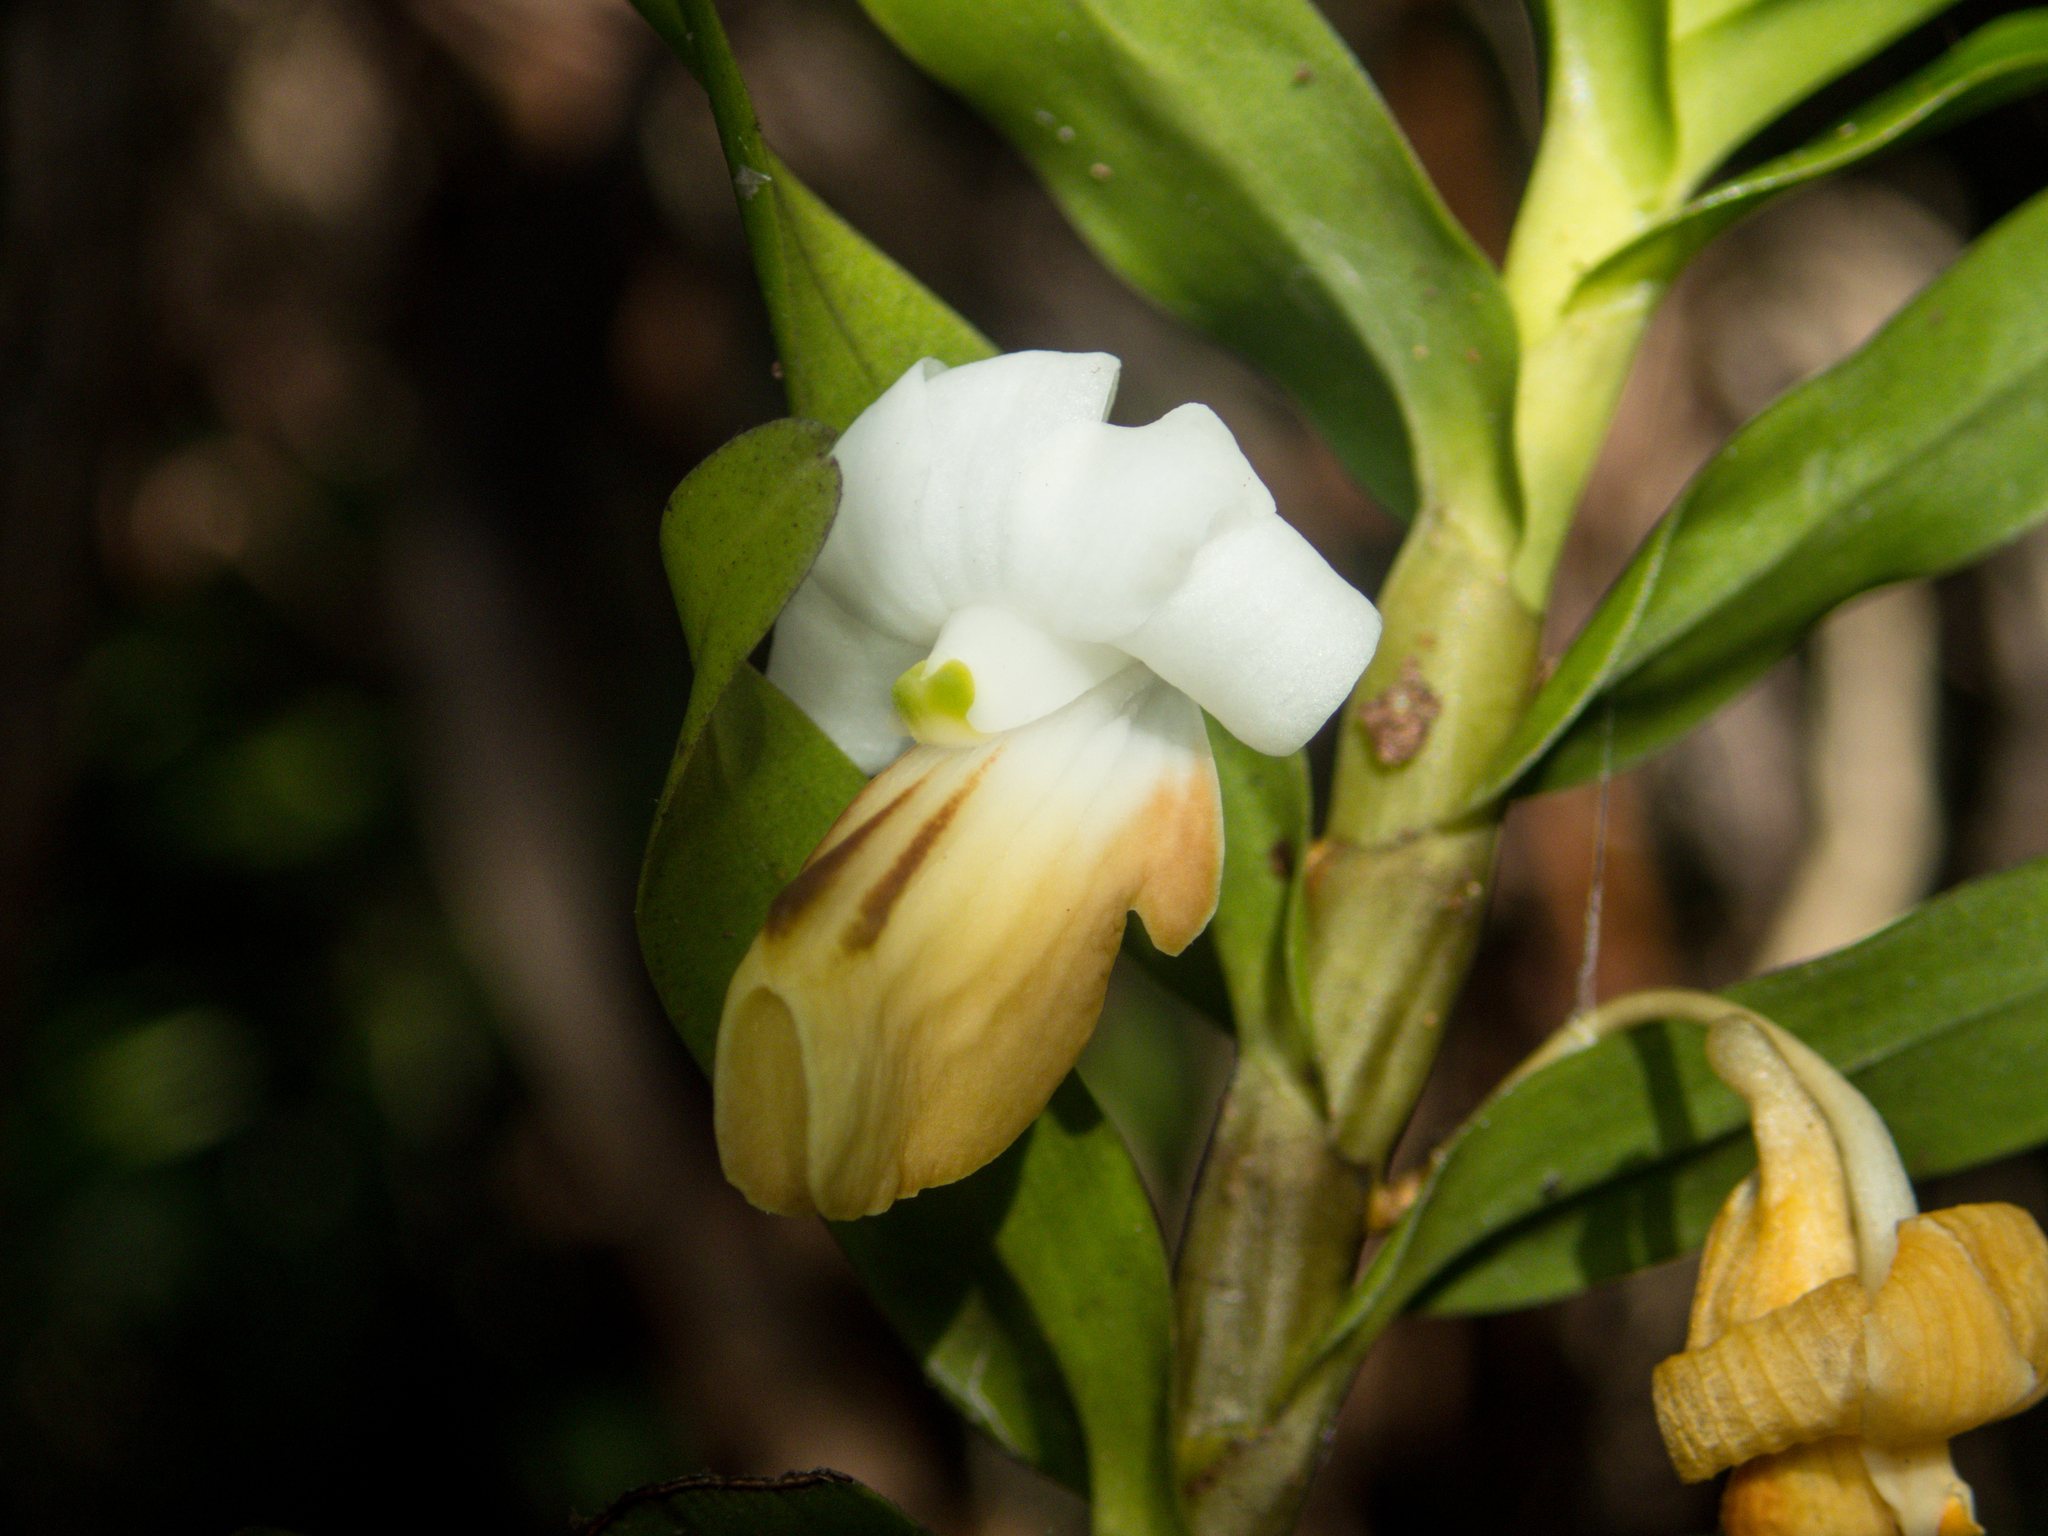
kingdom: Plantae
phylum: Tracheophyta
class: Liliopsida
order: Asparagales
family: Orchidaceae
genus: Dendrobium
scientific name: Dendrobium ellipsophyllum
